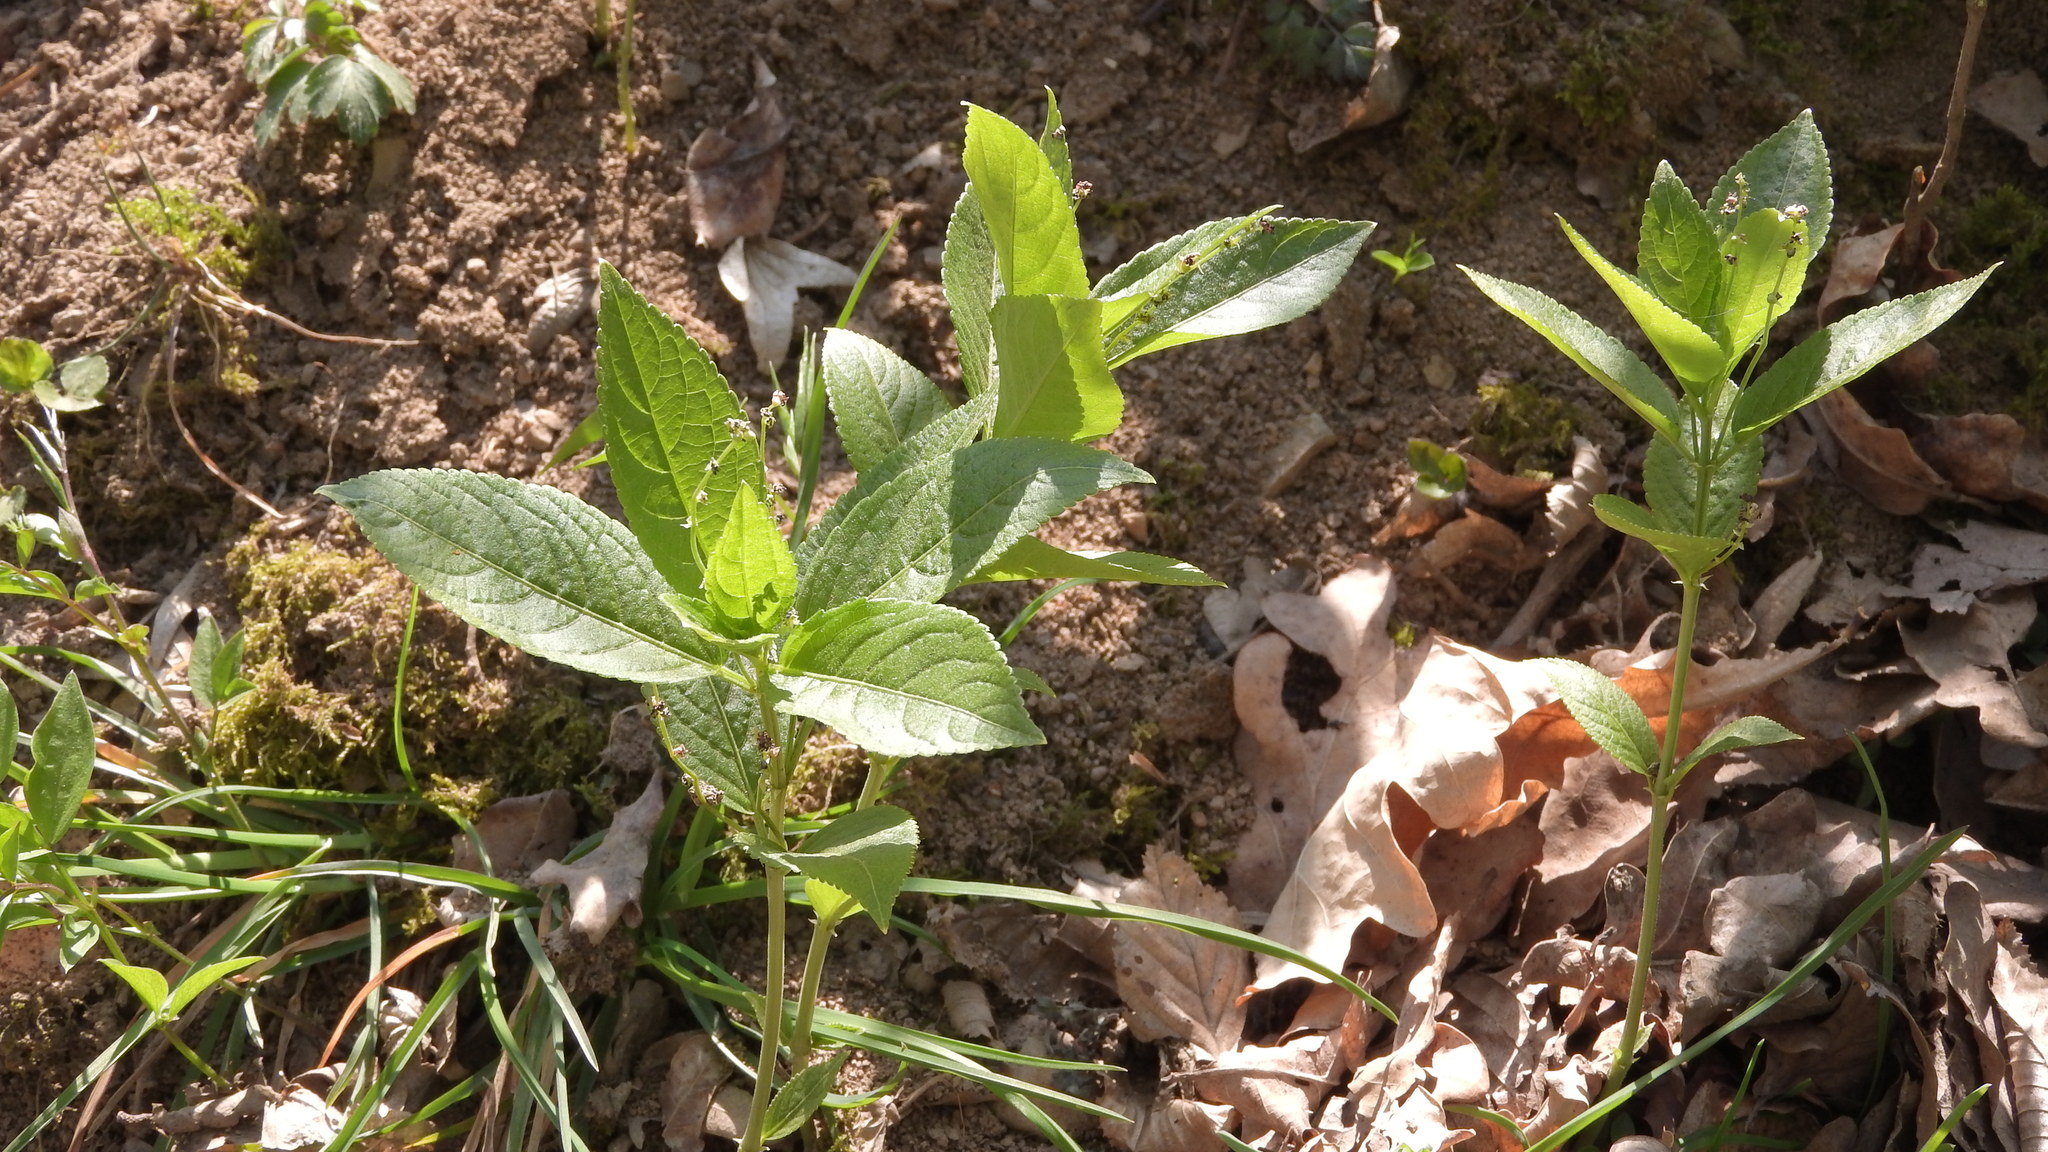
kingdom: Plantae
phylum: Tracheophyta
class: Magnoliopsida
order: Malpighiales
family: Euphorbiaceae
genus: Mercurialis
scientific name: Mercurialis perennis
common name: Dog mercury
